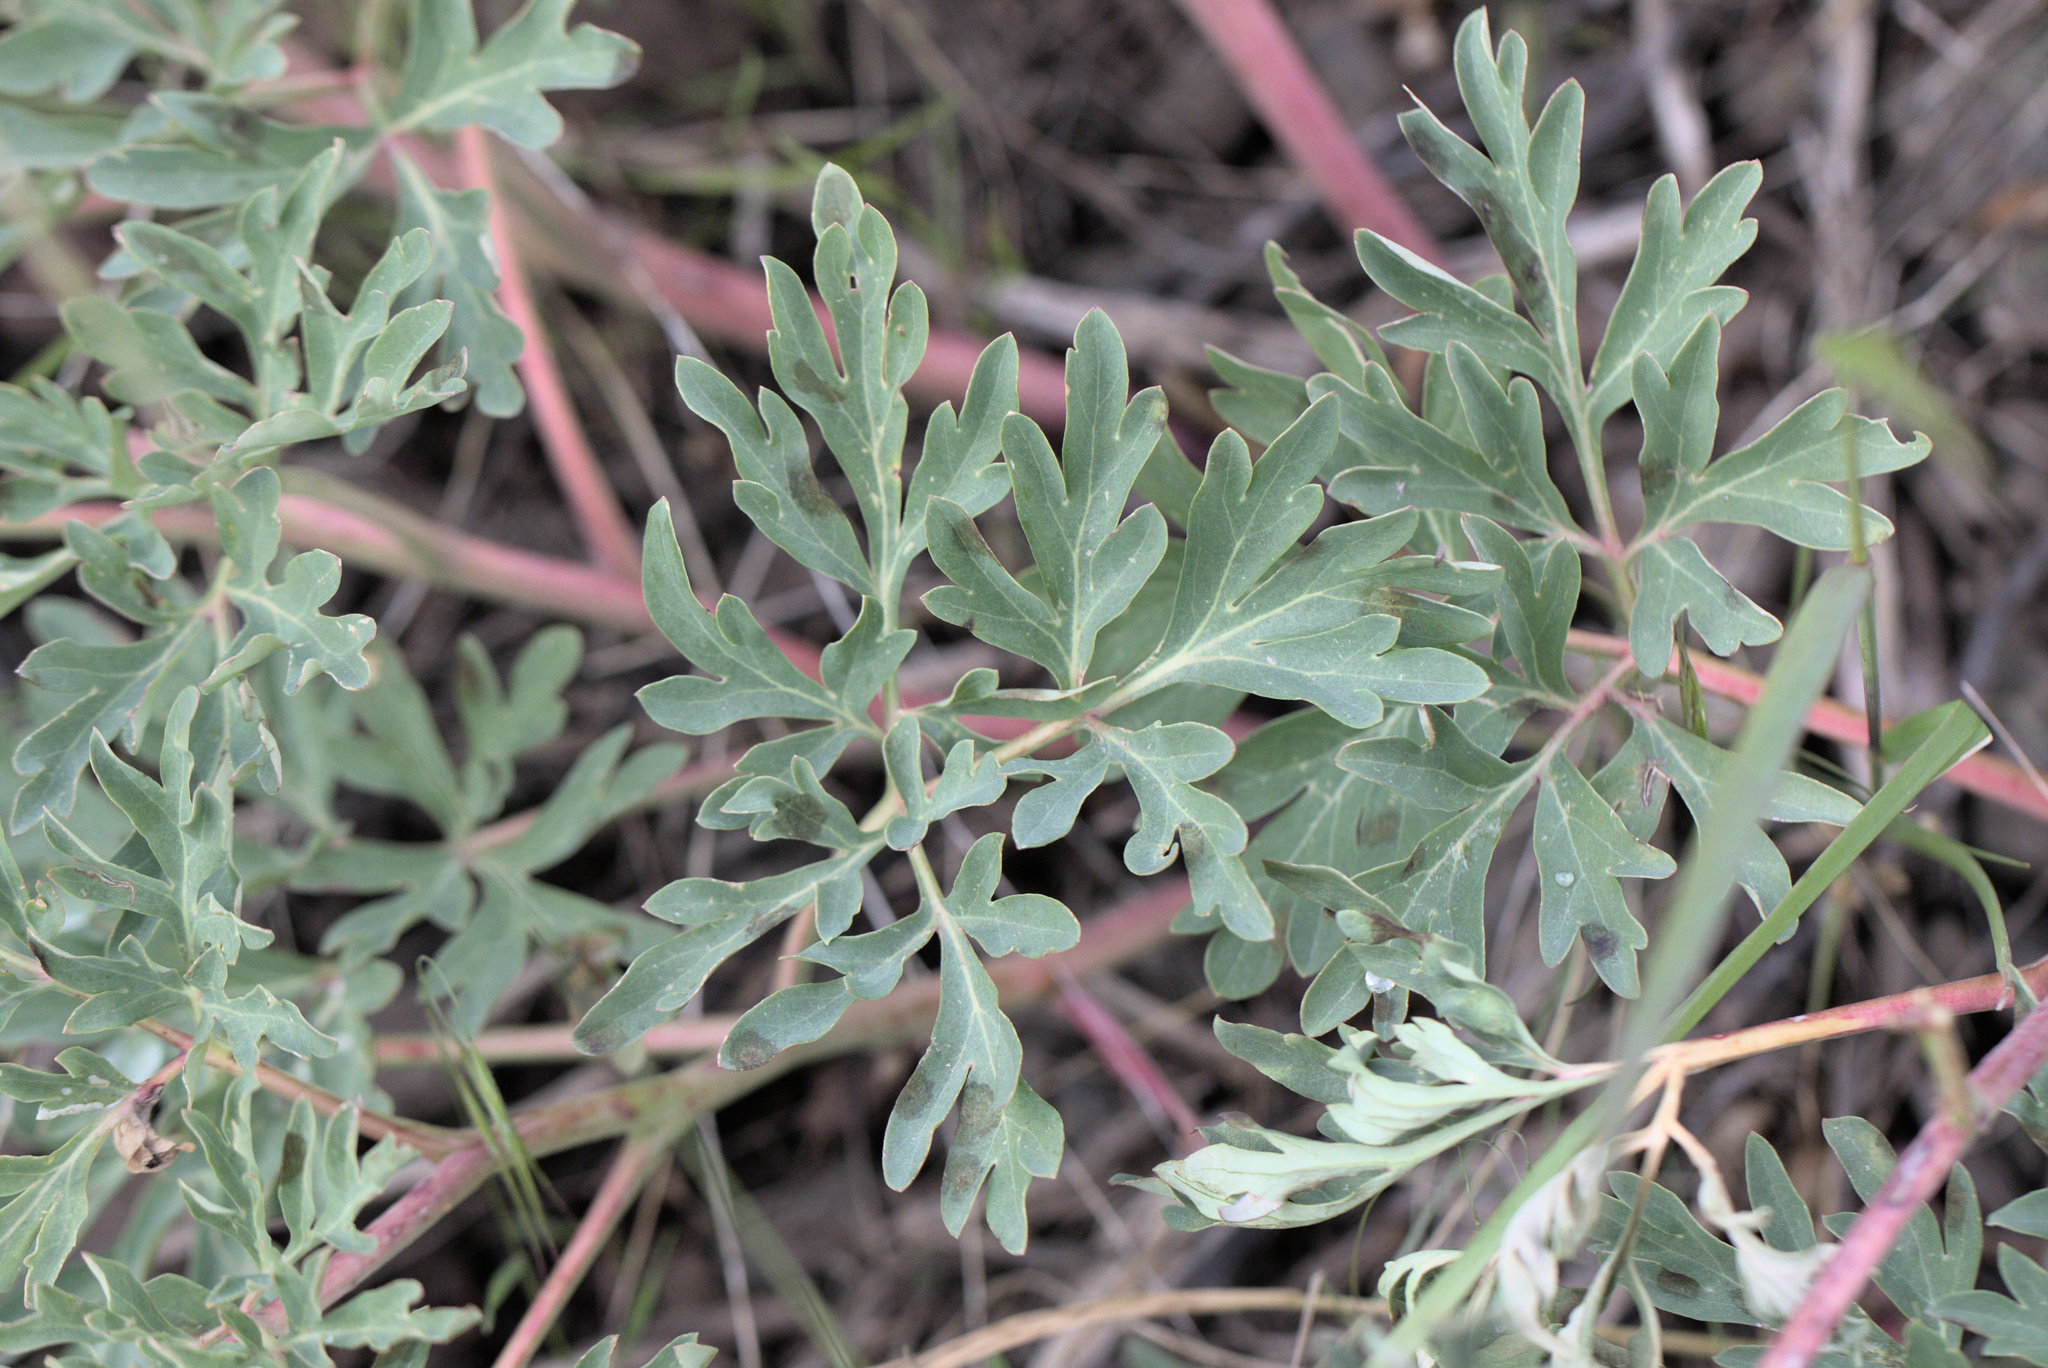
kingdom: Plantae
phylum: Tracheophyta
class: Magnoliopsida
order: Saxifragales
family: Paeoniaceae
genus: Paeonia
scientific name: Paeonia brownii
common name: Brown's peony
